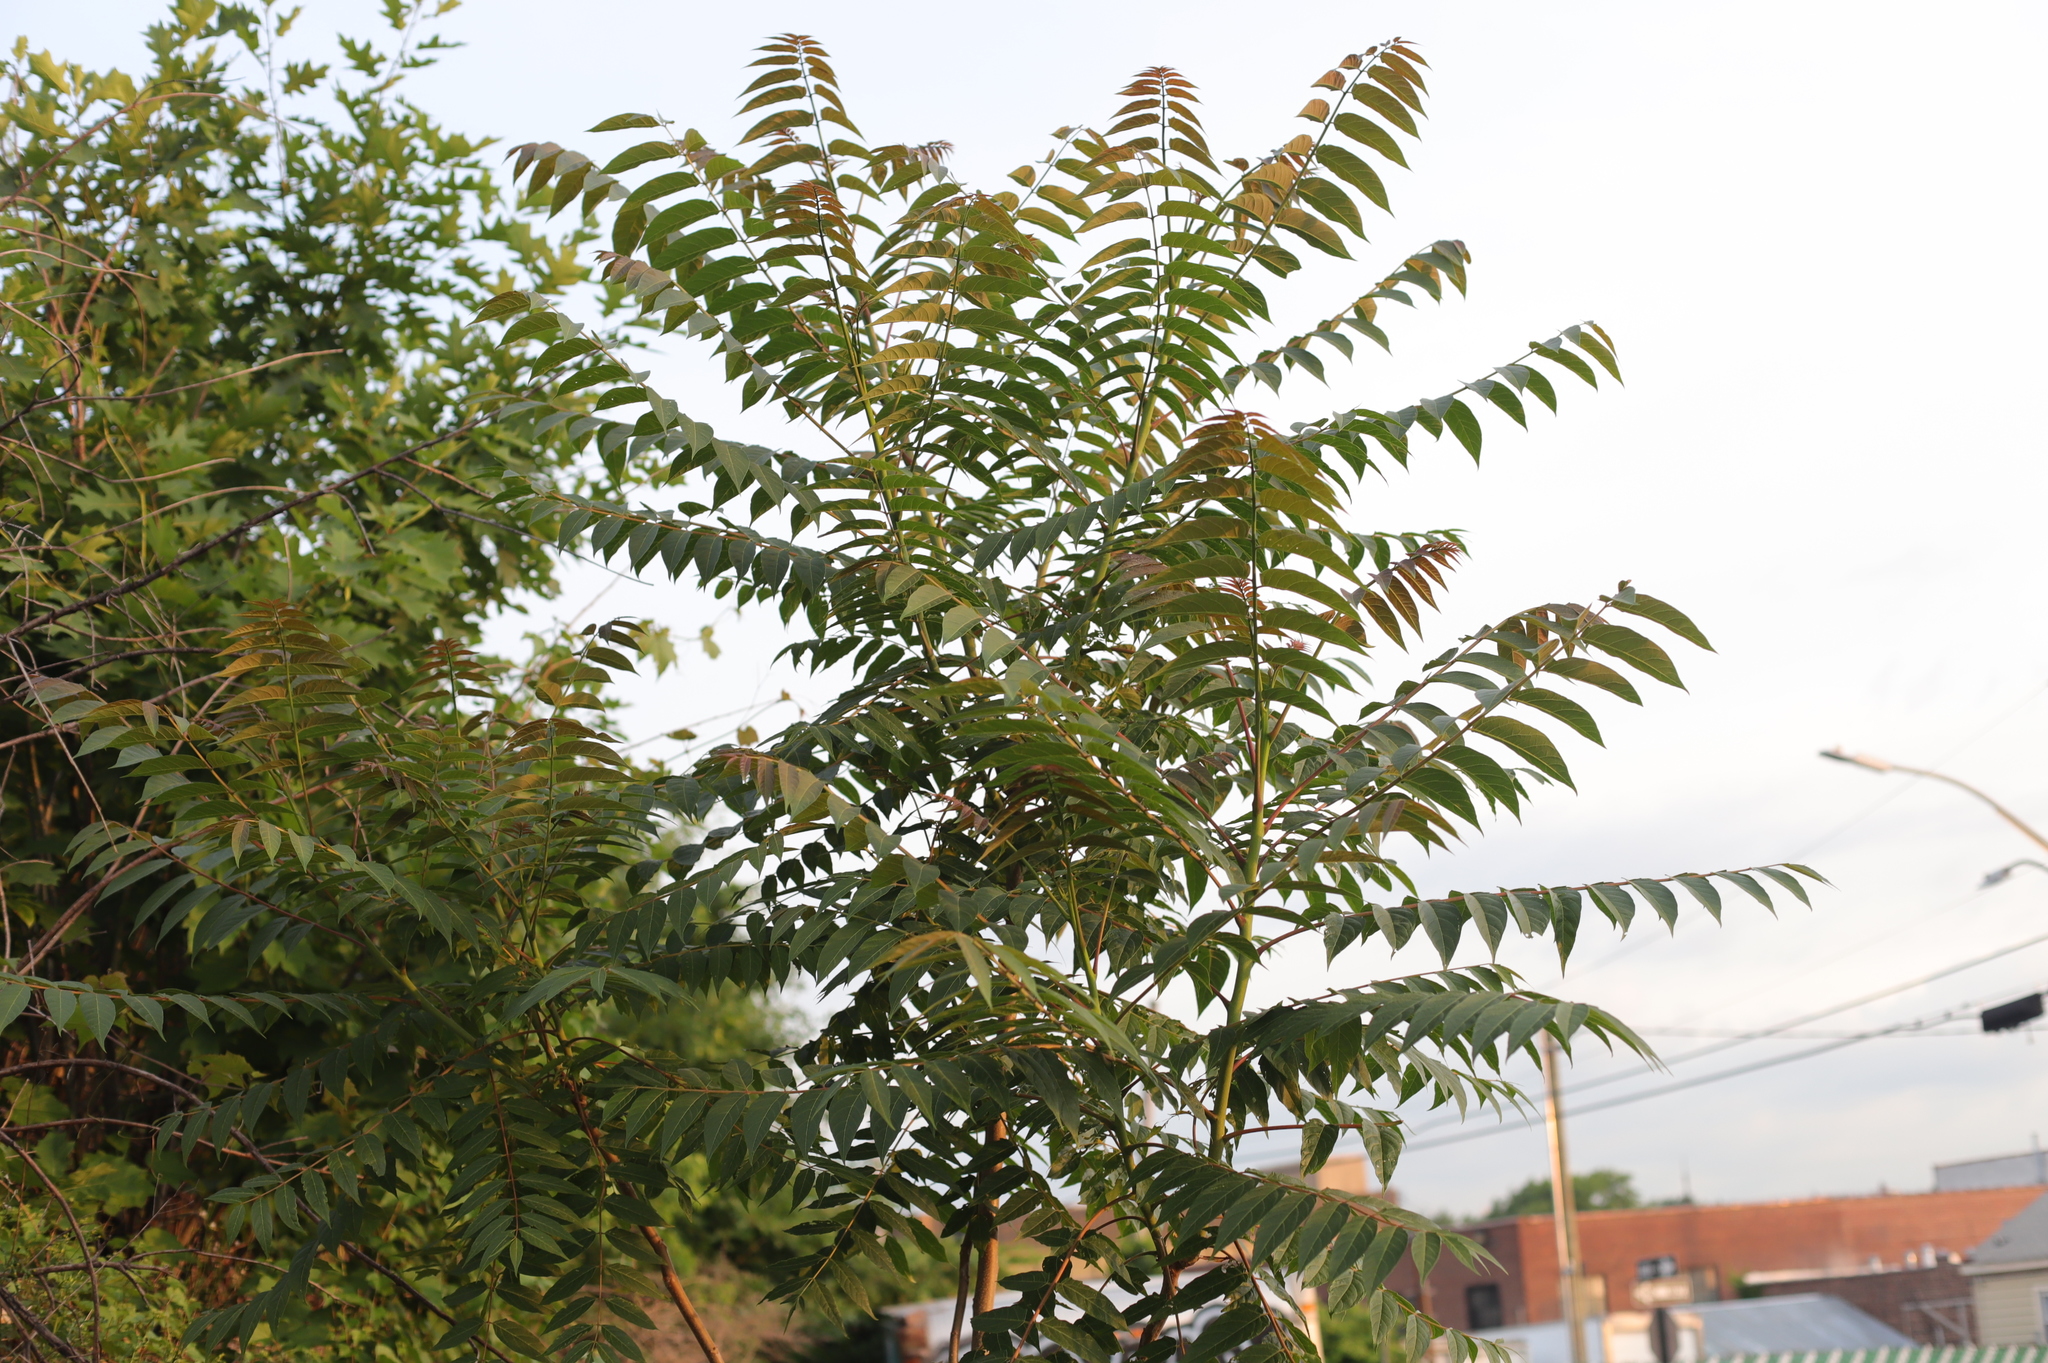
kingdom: Plantae
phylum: Tracheophyta
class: Magnoliopsida
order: Sapindales
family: Simaroubaceae
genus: Ailanthus
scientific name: Ailanthus altissima
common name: Tree-of-heaven
